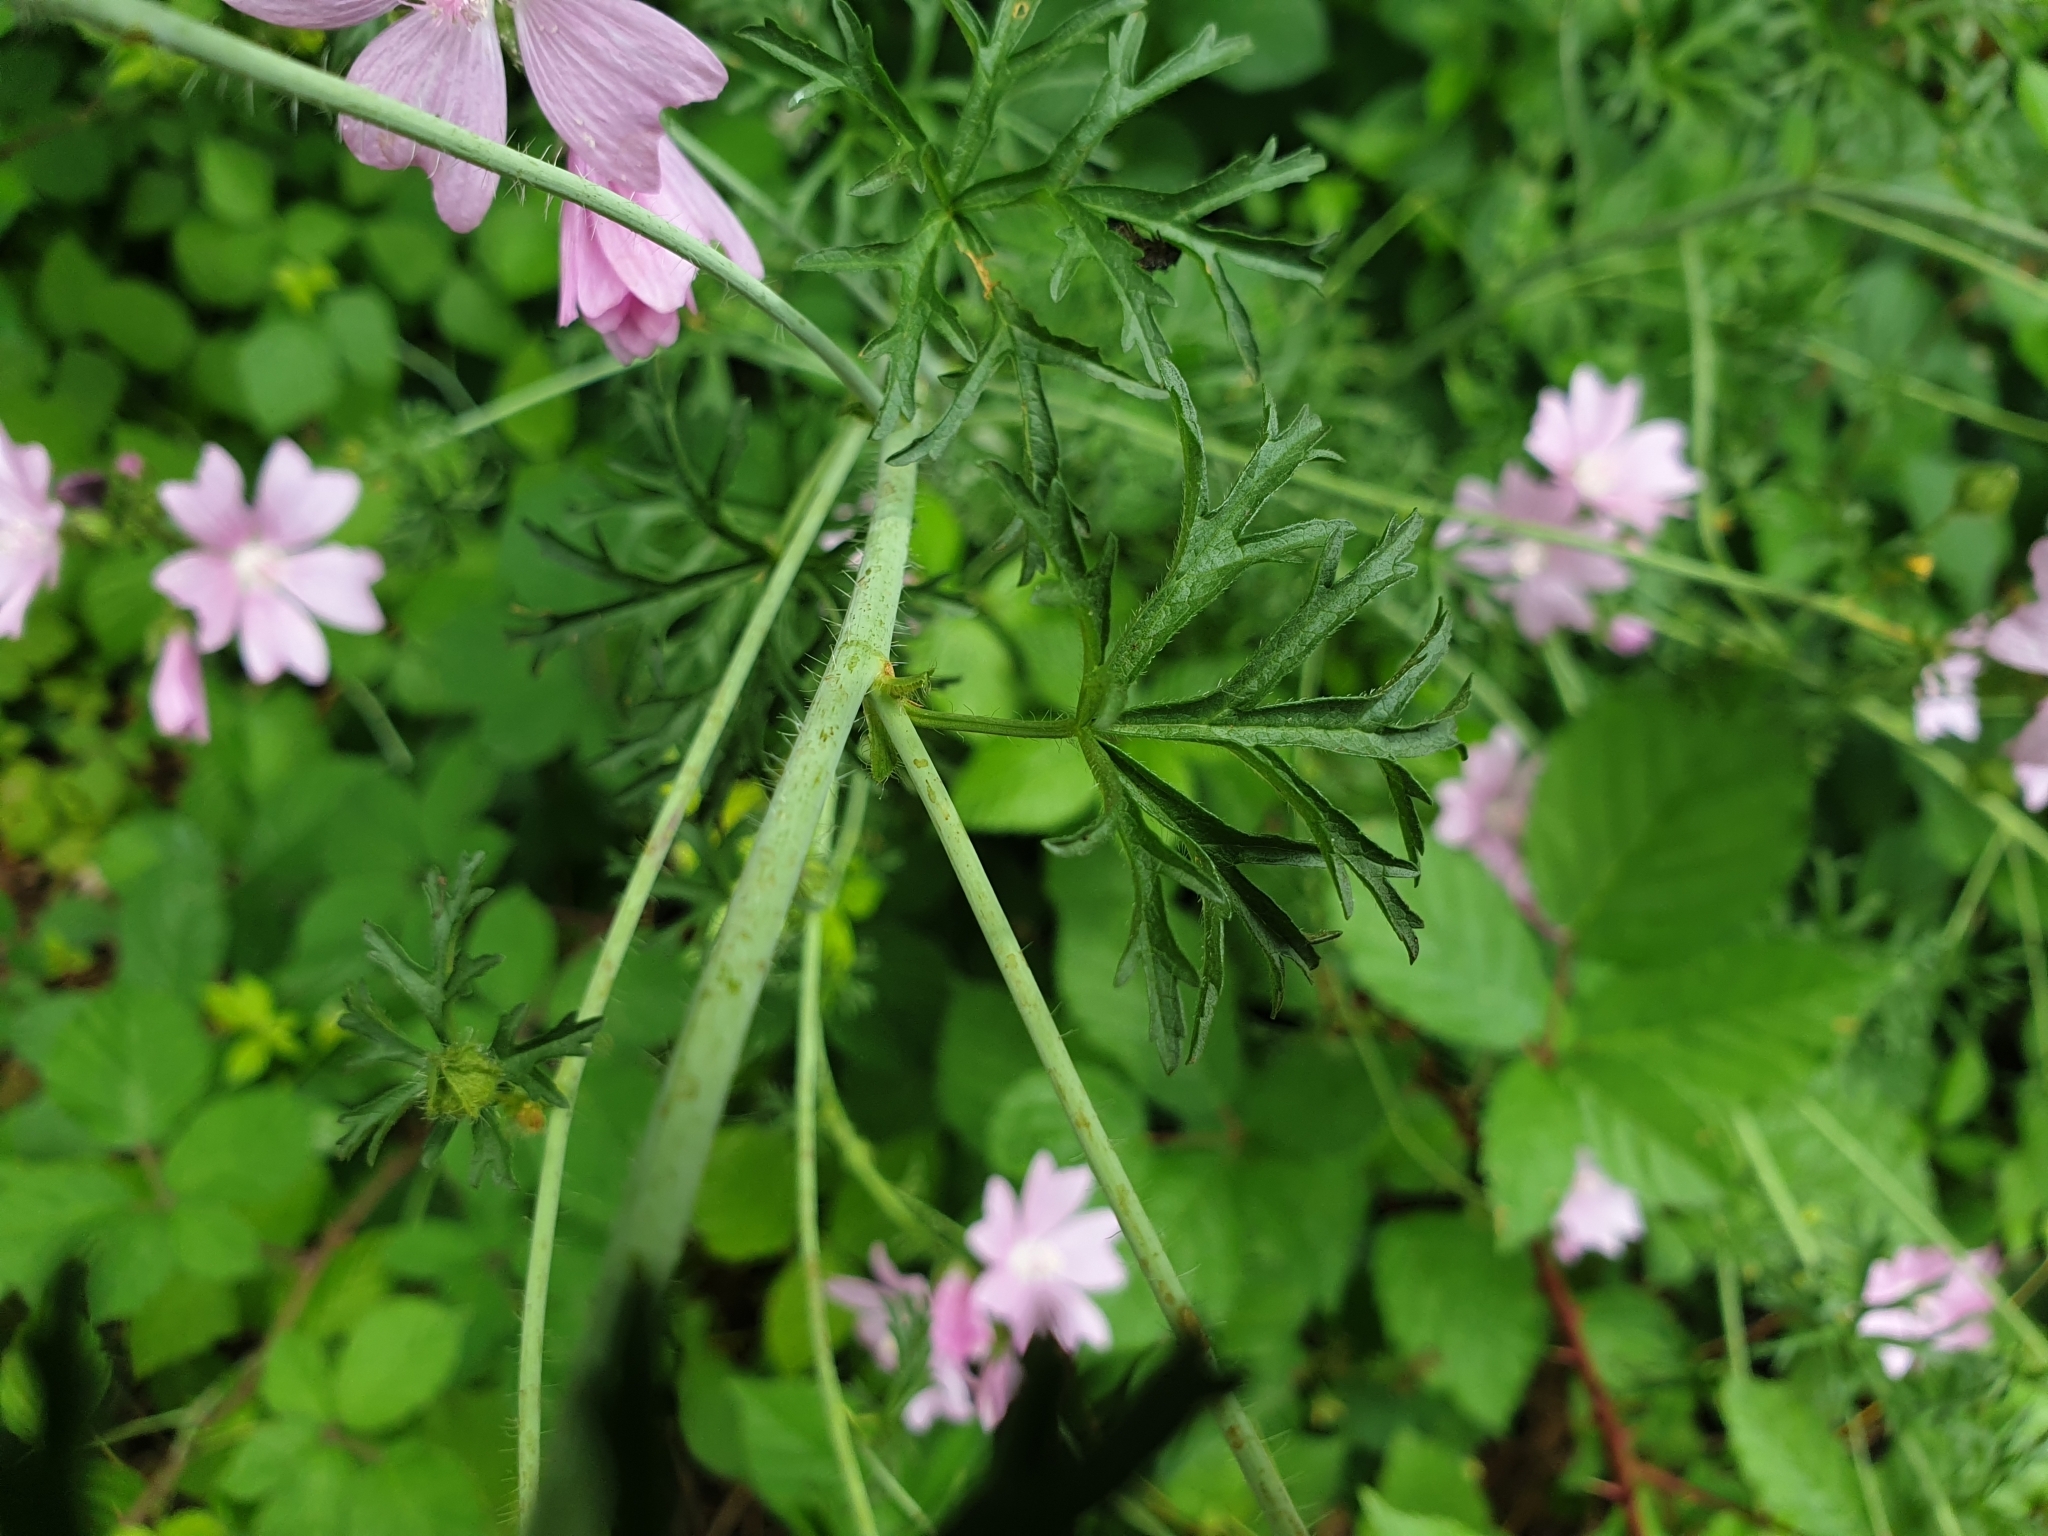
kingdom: Plantae
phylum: Tracheophyta
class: Magnoliopsida
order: Malvales
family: Malvaceae
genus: Malva
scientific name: Malva moschata
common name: Musk mallow
